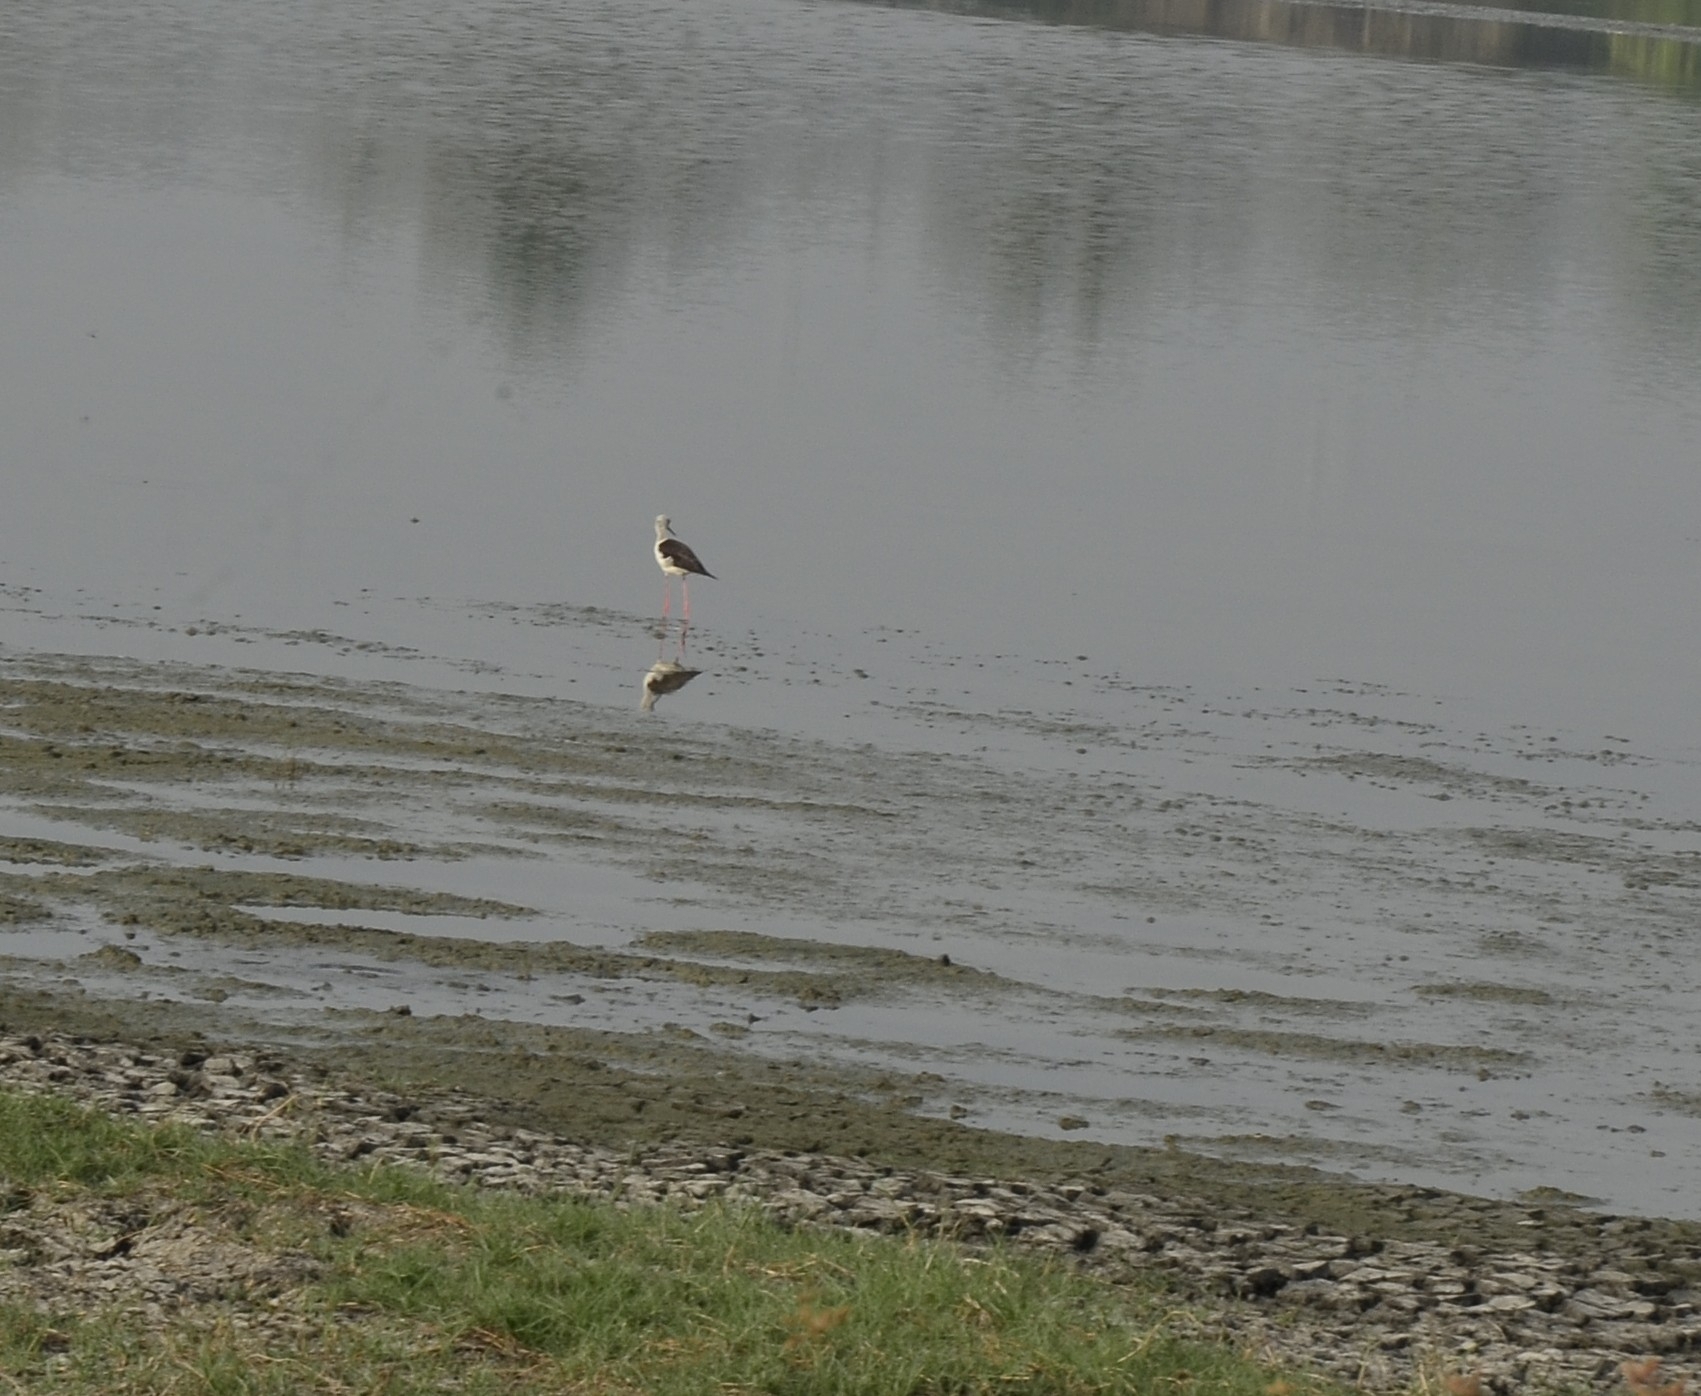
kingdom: Animalia
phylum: Chordata
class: Aves
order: Charadriiformes
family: Recurvirostridae
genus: Himantopus
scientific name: Himantopus himantopus
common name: Black-winged stilt
